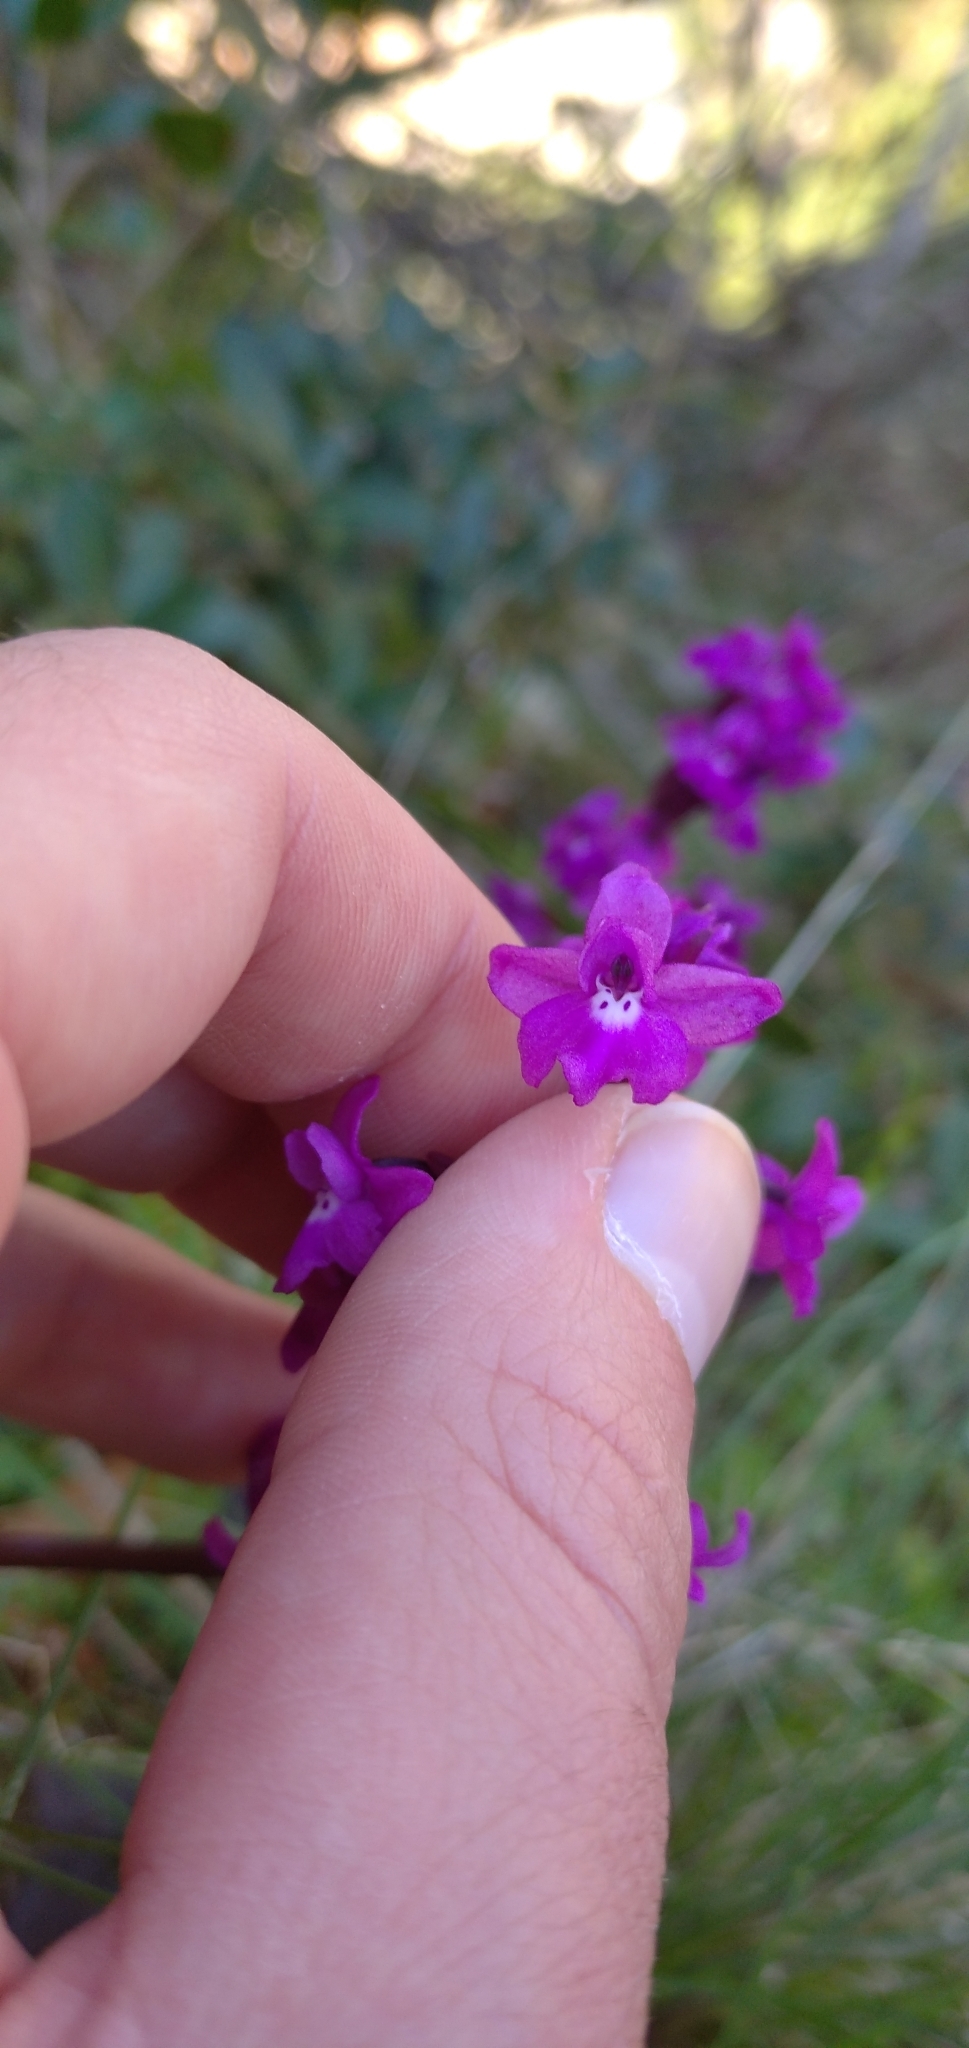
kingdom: Plantae
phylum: Tracheophyta
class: Liliopsida
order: Asparagales
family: Orchidaceae
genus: Orchis
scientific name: Orchis quadripunctata
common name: Four-spotted orchid
